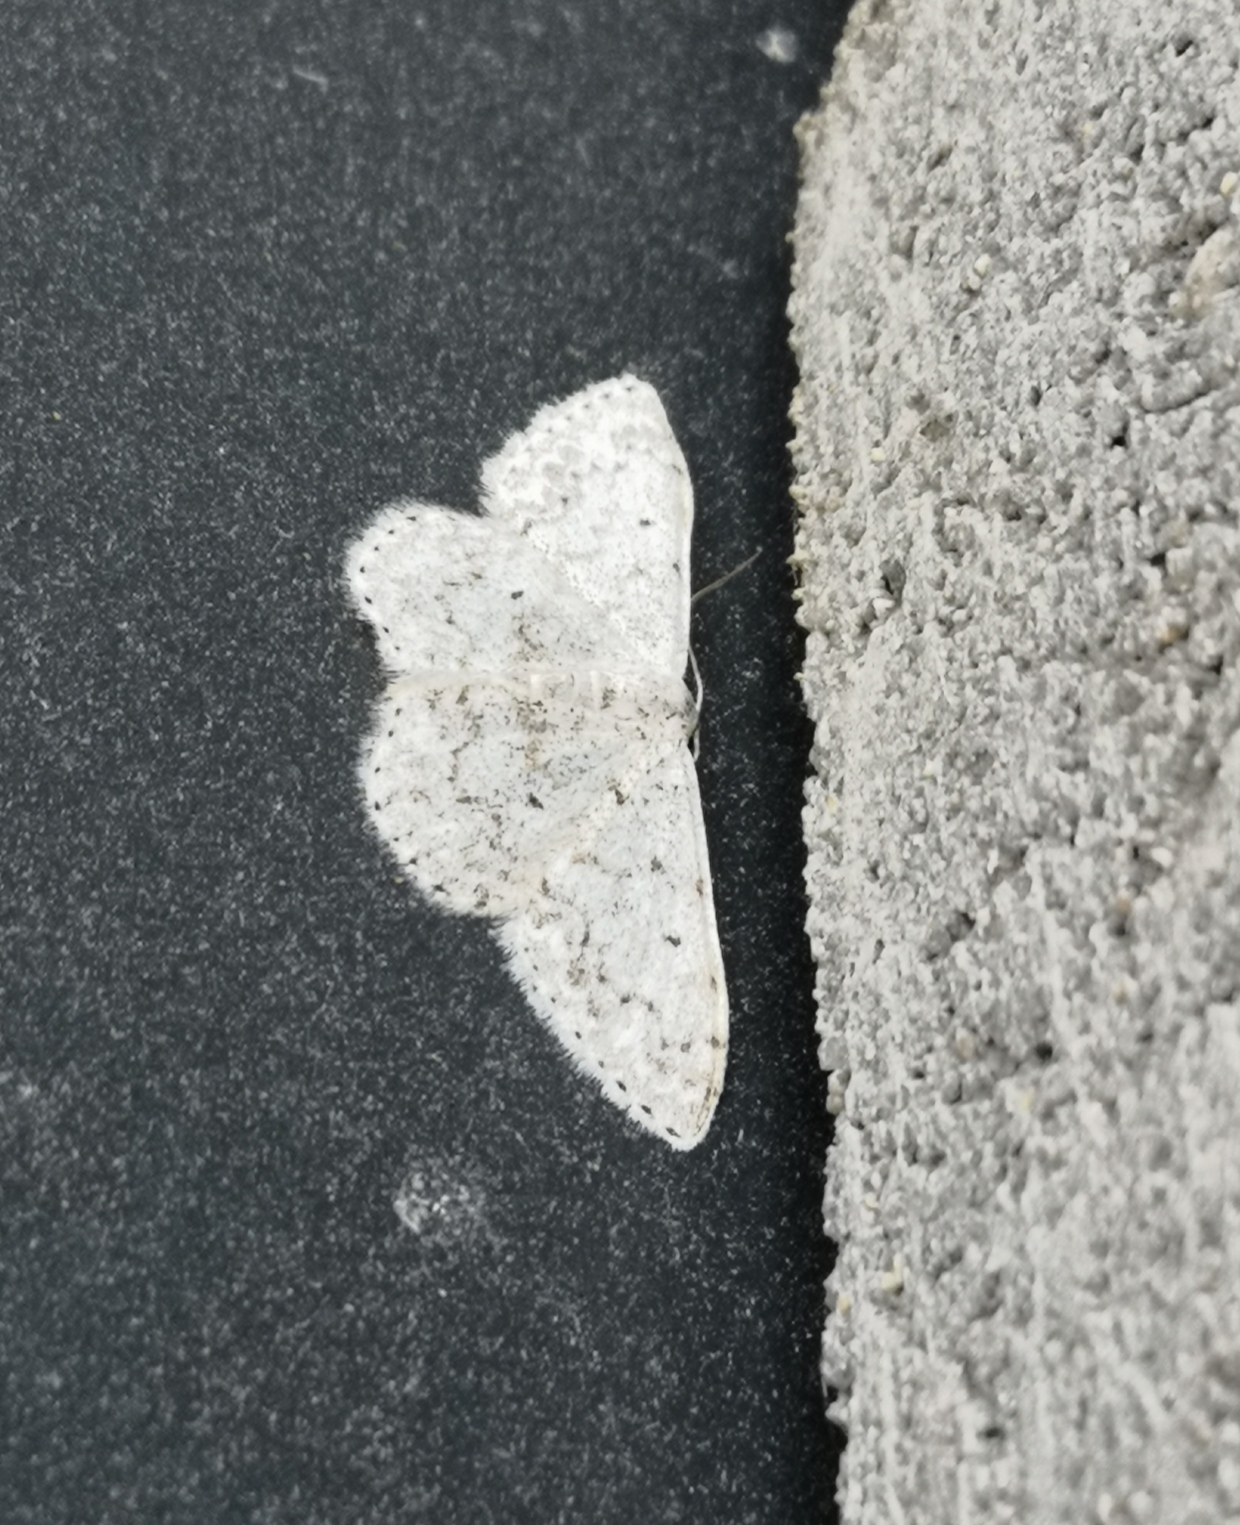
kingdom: Animalia
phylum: Arthropoda
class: Insecta
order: Lepidoptera
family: Geometridae
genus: Scopula
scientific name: Scopula marginepunctata
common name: Mullein wave
